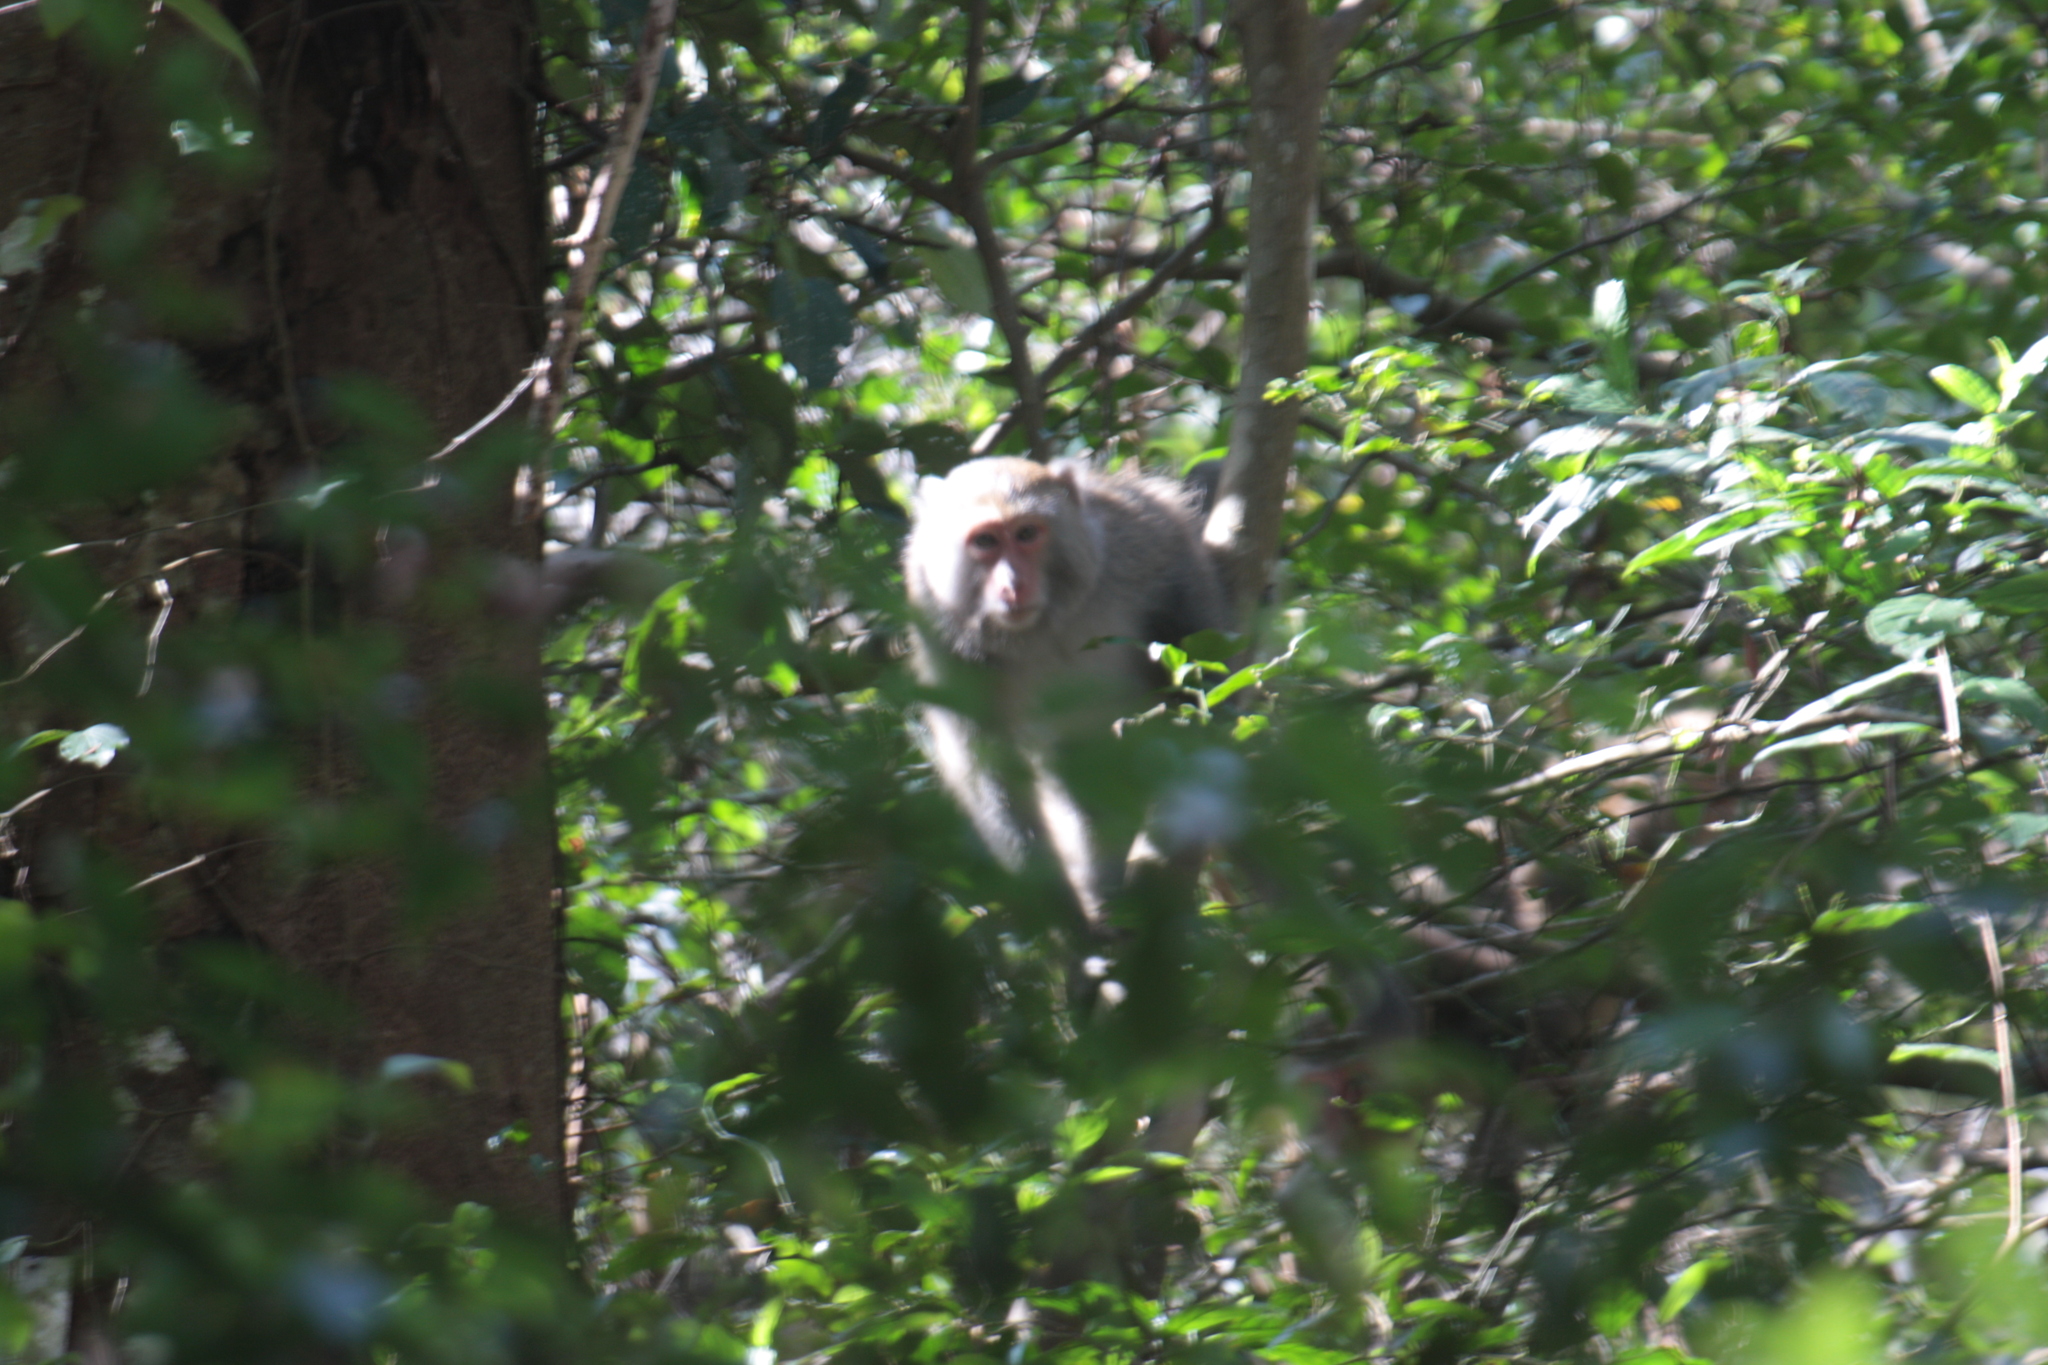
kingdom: Animalia
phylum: Chordata
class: Mammalia
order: Primates
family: Cercopithecidae
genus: Macaca
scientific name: Macaca cyclopis
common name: Formosan rock macaque
